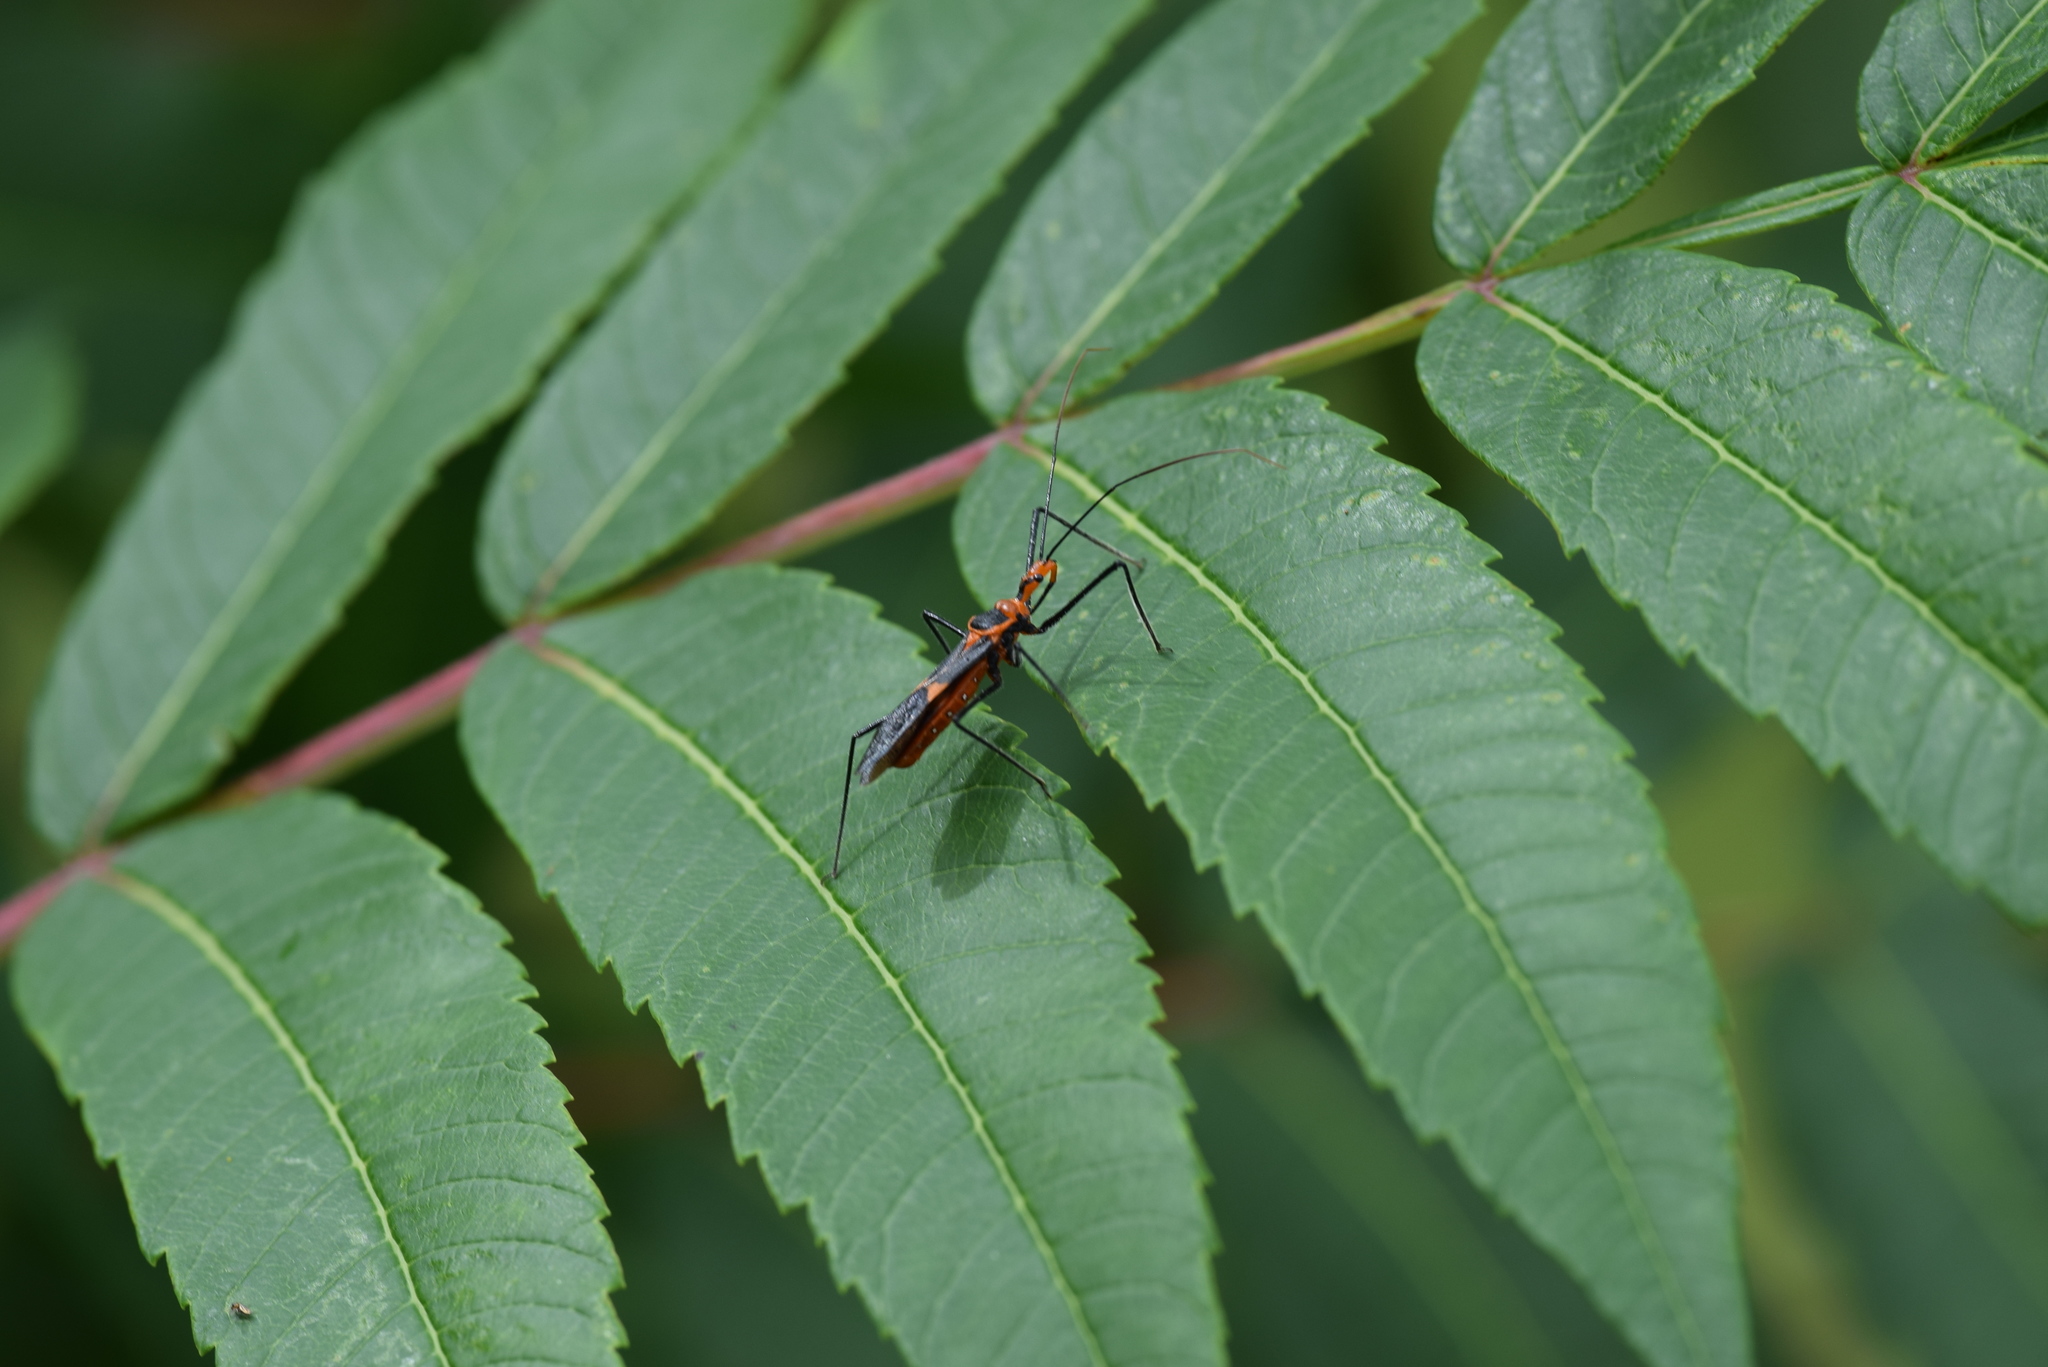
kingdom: Animalia
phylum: Arthropoda
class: Insecta
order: Hemiptera
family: Reduviidae
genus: Zelus
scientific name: Zelus longipes
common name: Milkweed assassin bug
